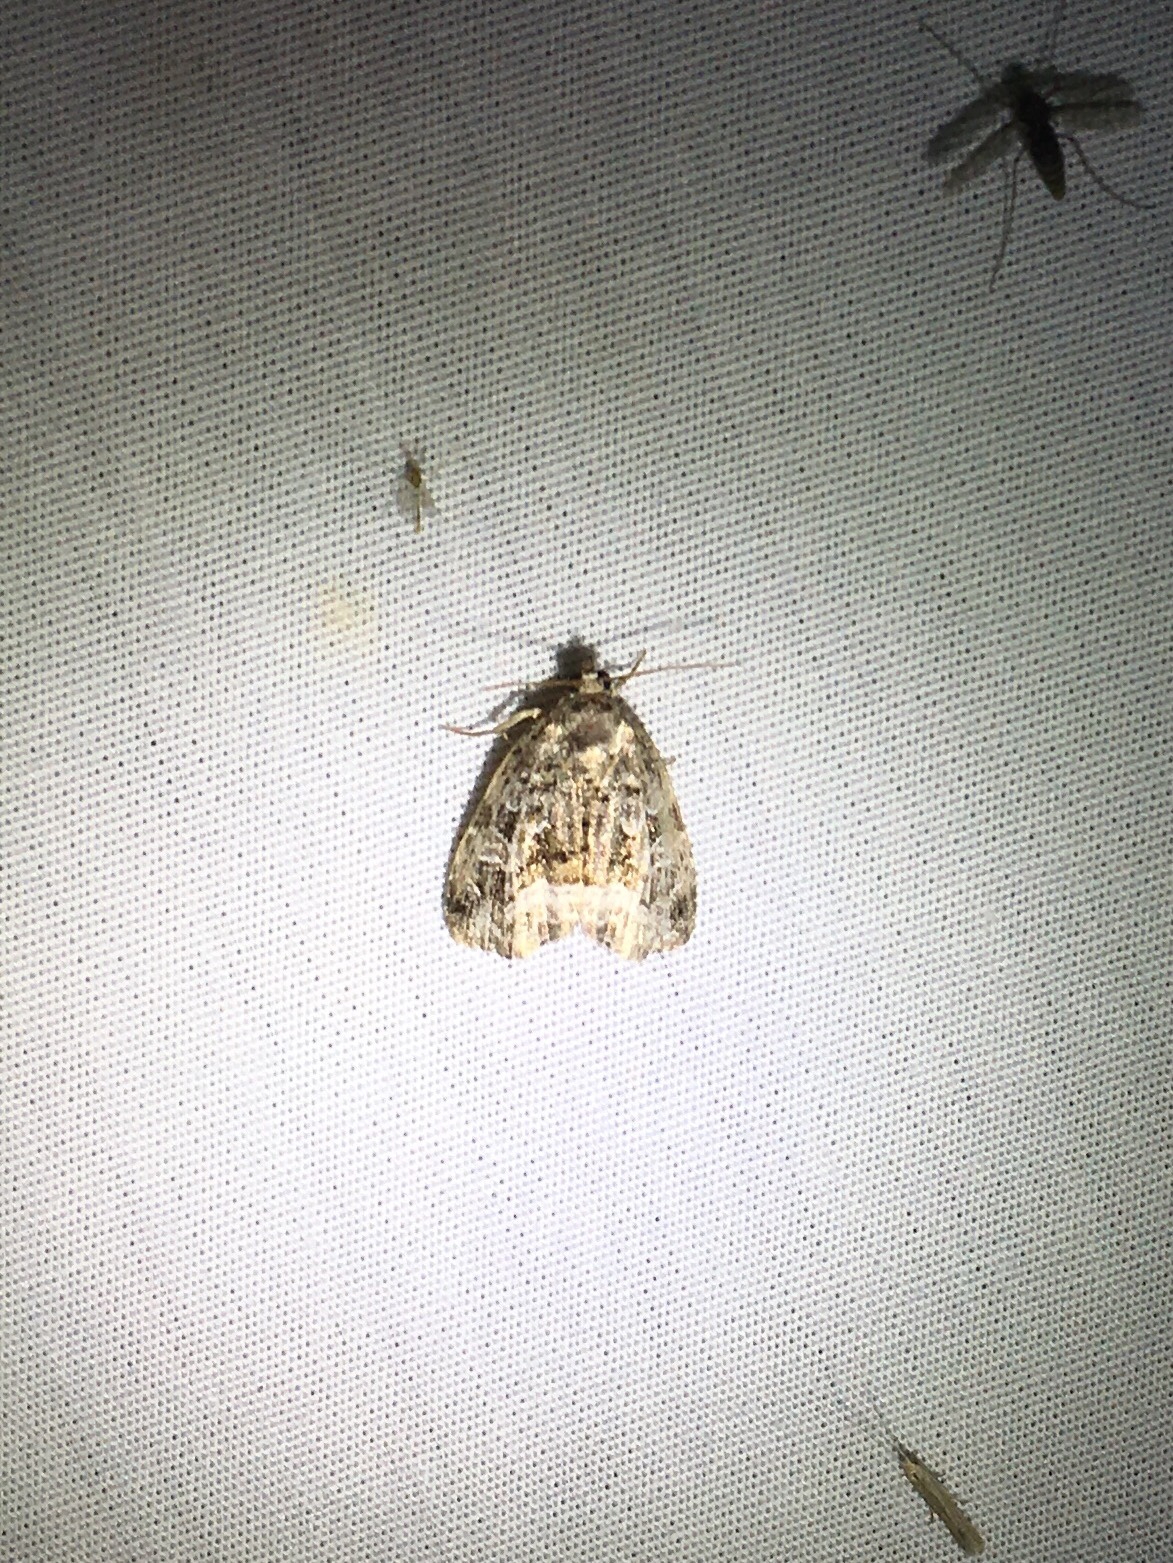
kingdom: Animalia
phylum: Arthropoda
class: Insecta
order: Lepidoptera
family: Noctuidae
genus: Protodeltote
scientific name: Protodeltote muscosula
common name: Large mossy glyph
